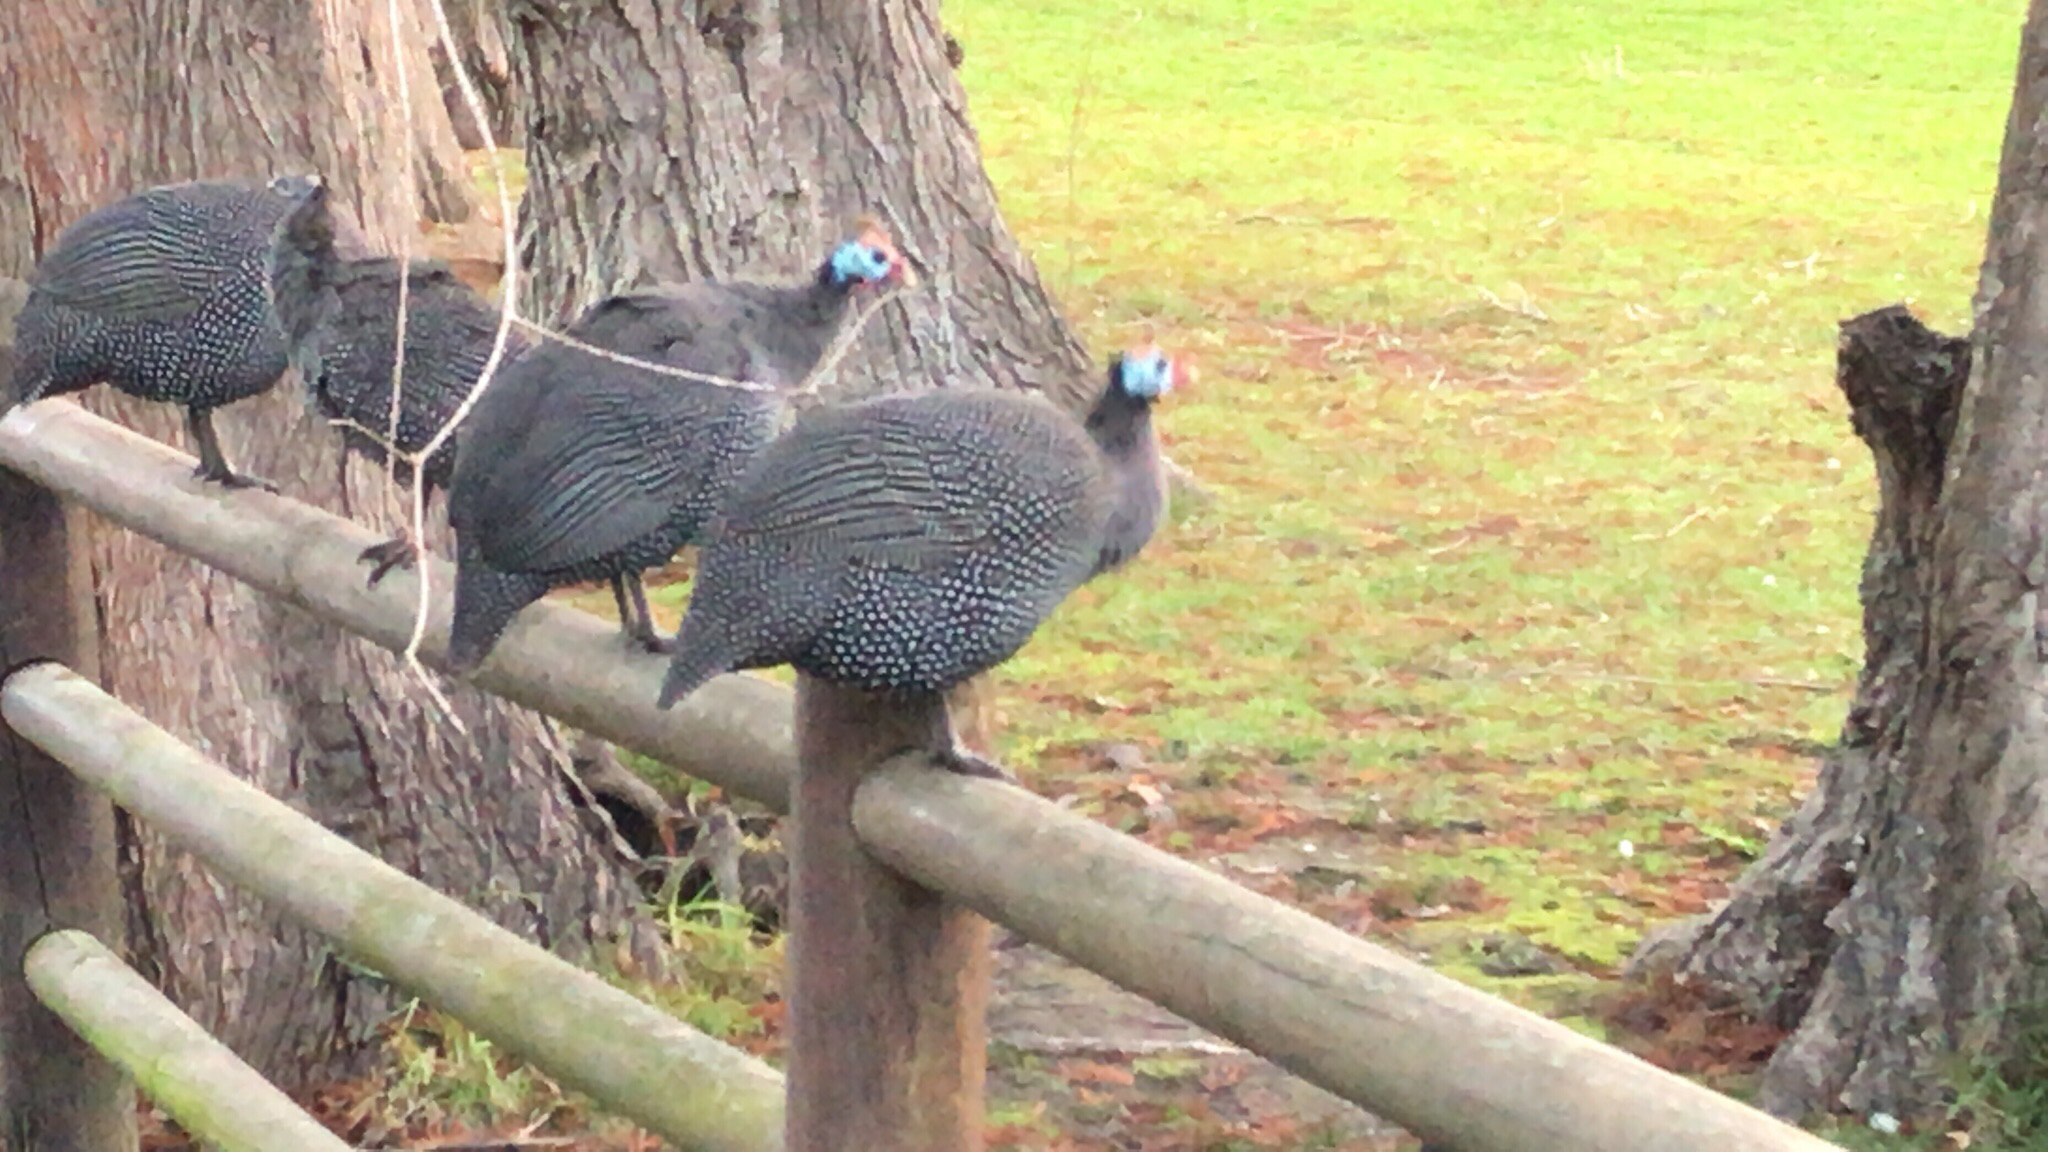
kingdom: Animalia
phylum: Chordata
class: Aves
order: Galliformes
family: Numididae
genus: Numida
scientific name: Numida meleagris
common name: Helmeted guineafowl
